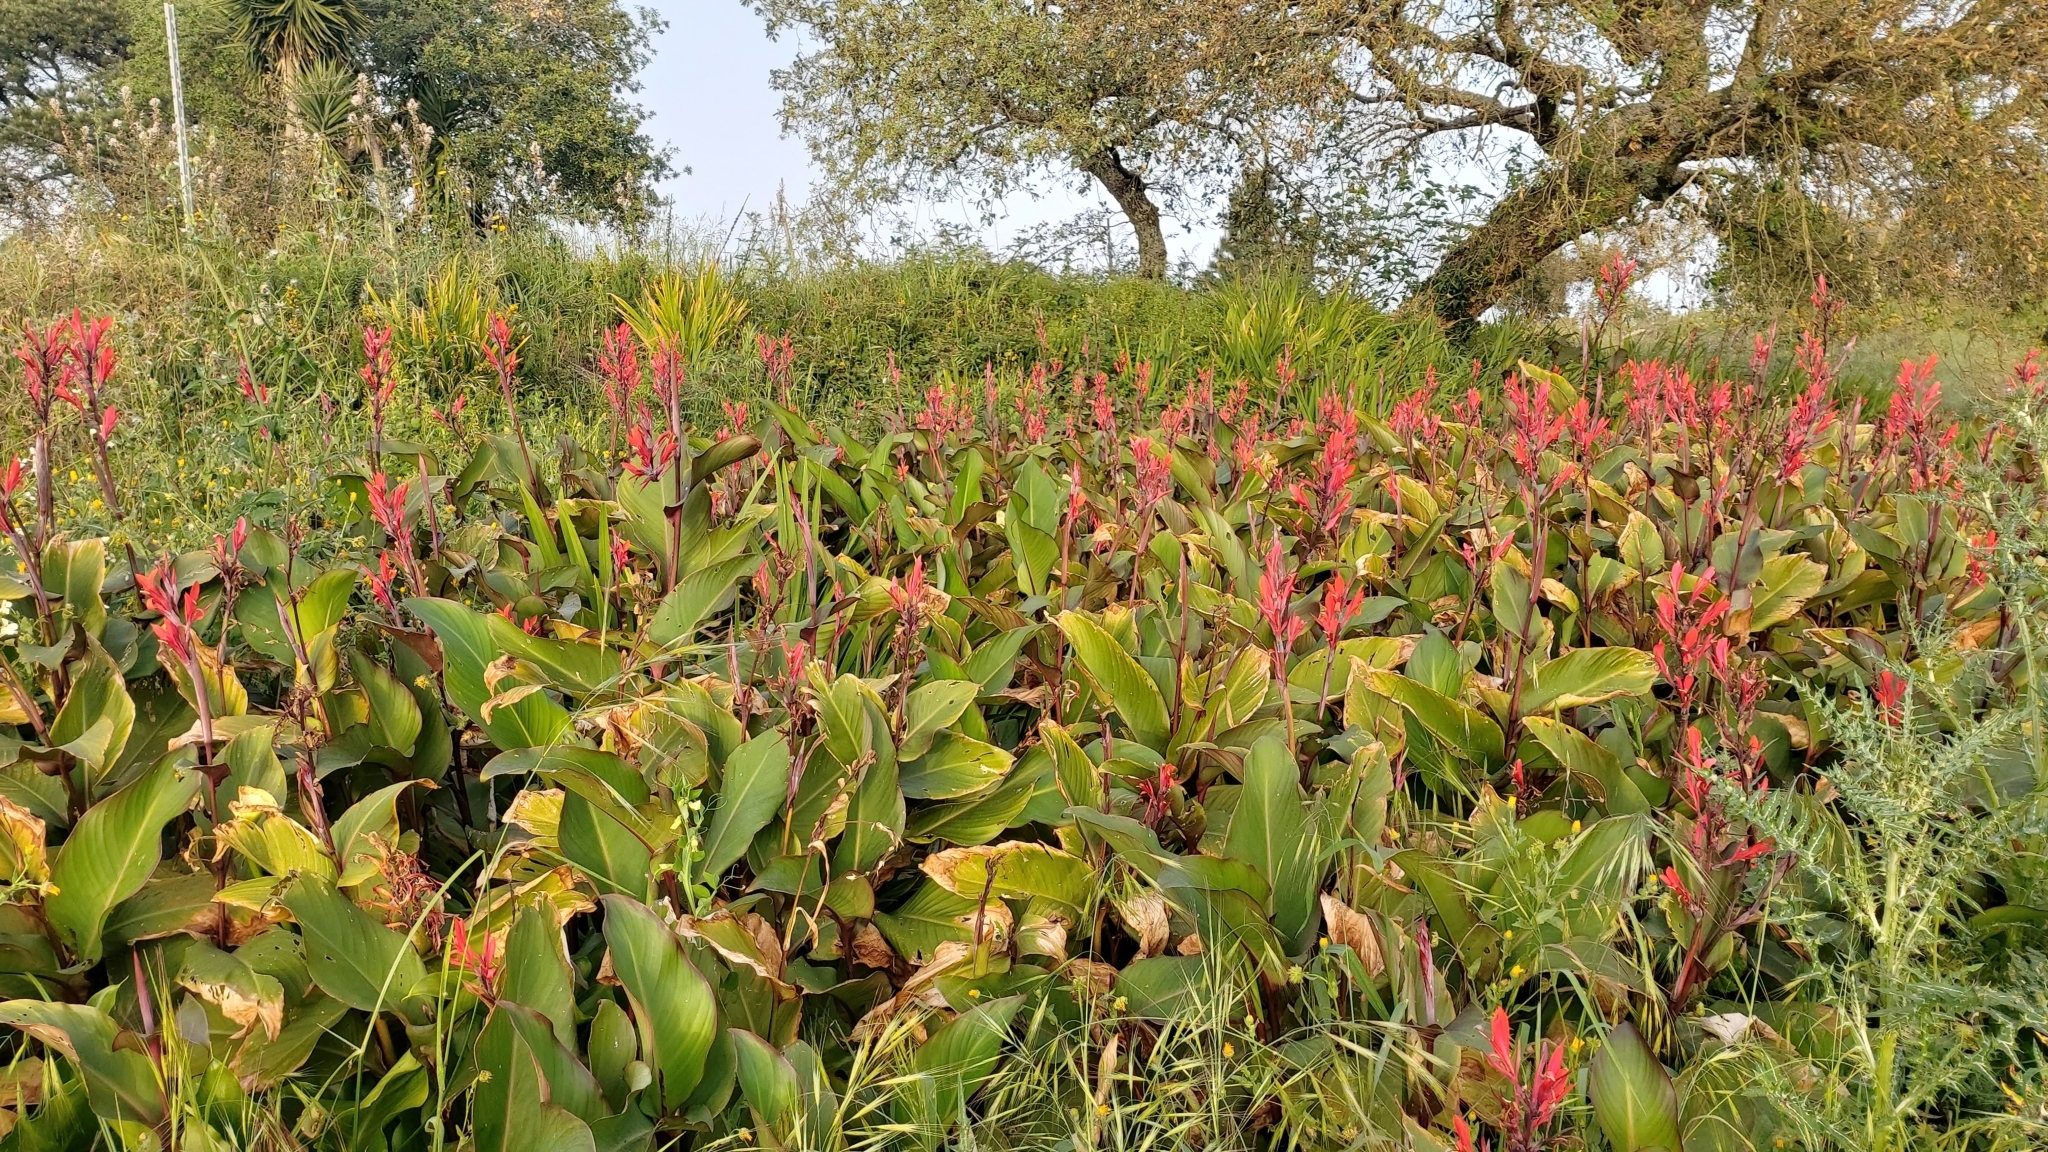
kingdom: Plantae
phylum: Tracheophyta
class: Liliopsida
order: Zingiberales
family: Cannaceae
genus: Canna
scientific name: Canna indica
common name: Indian shot
